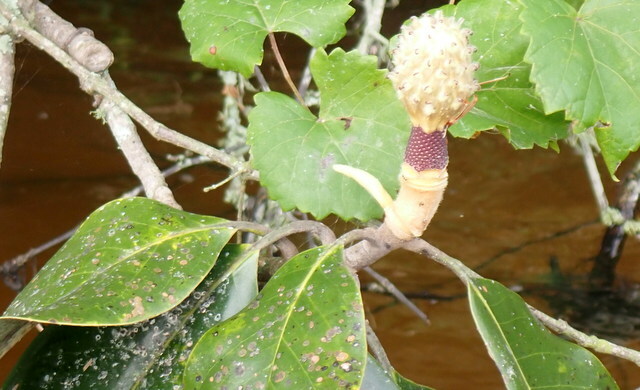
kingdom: Plantae
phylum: Tracheophyta
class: Magnoliopsida
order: Magnoliales
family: Magnoliaceae
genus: Magnolia
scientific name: Magnolia grandiflora
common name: Southern magnolia
